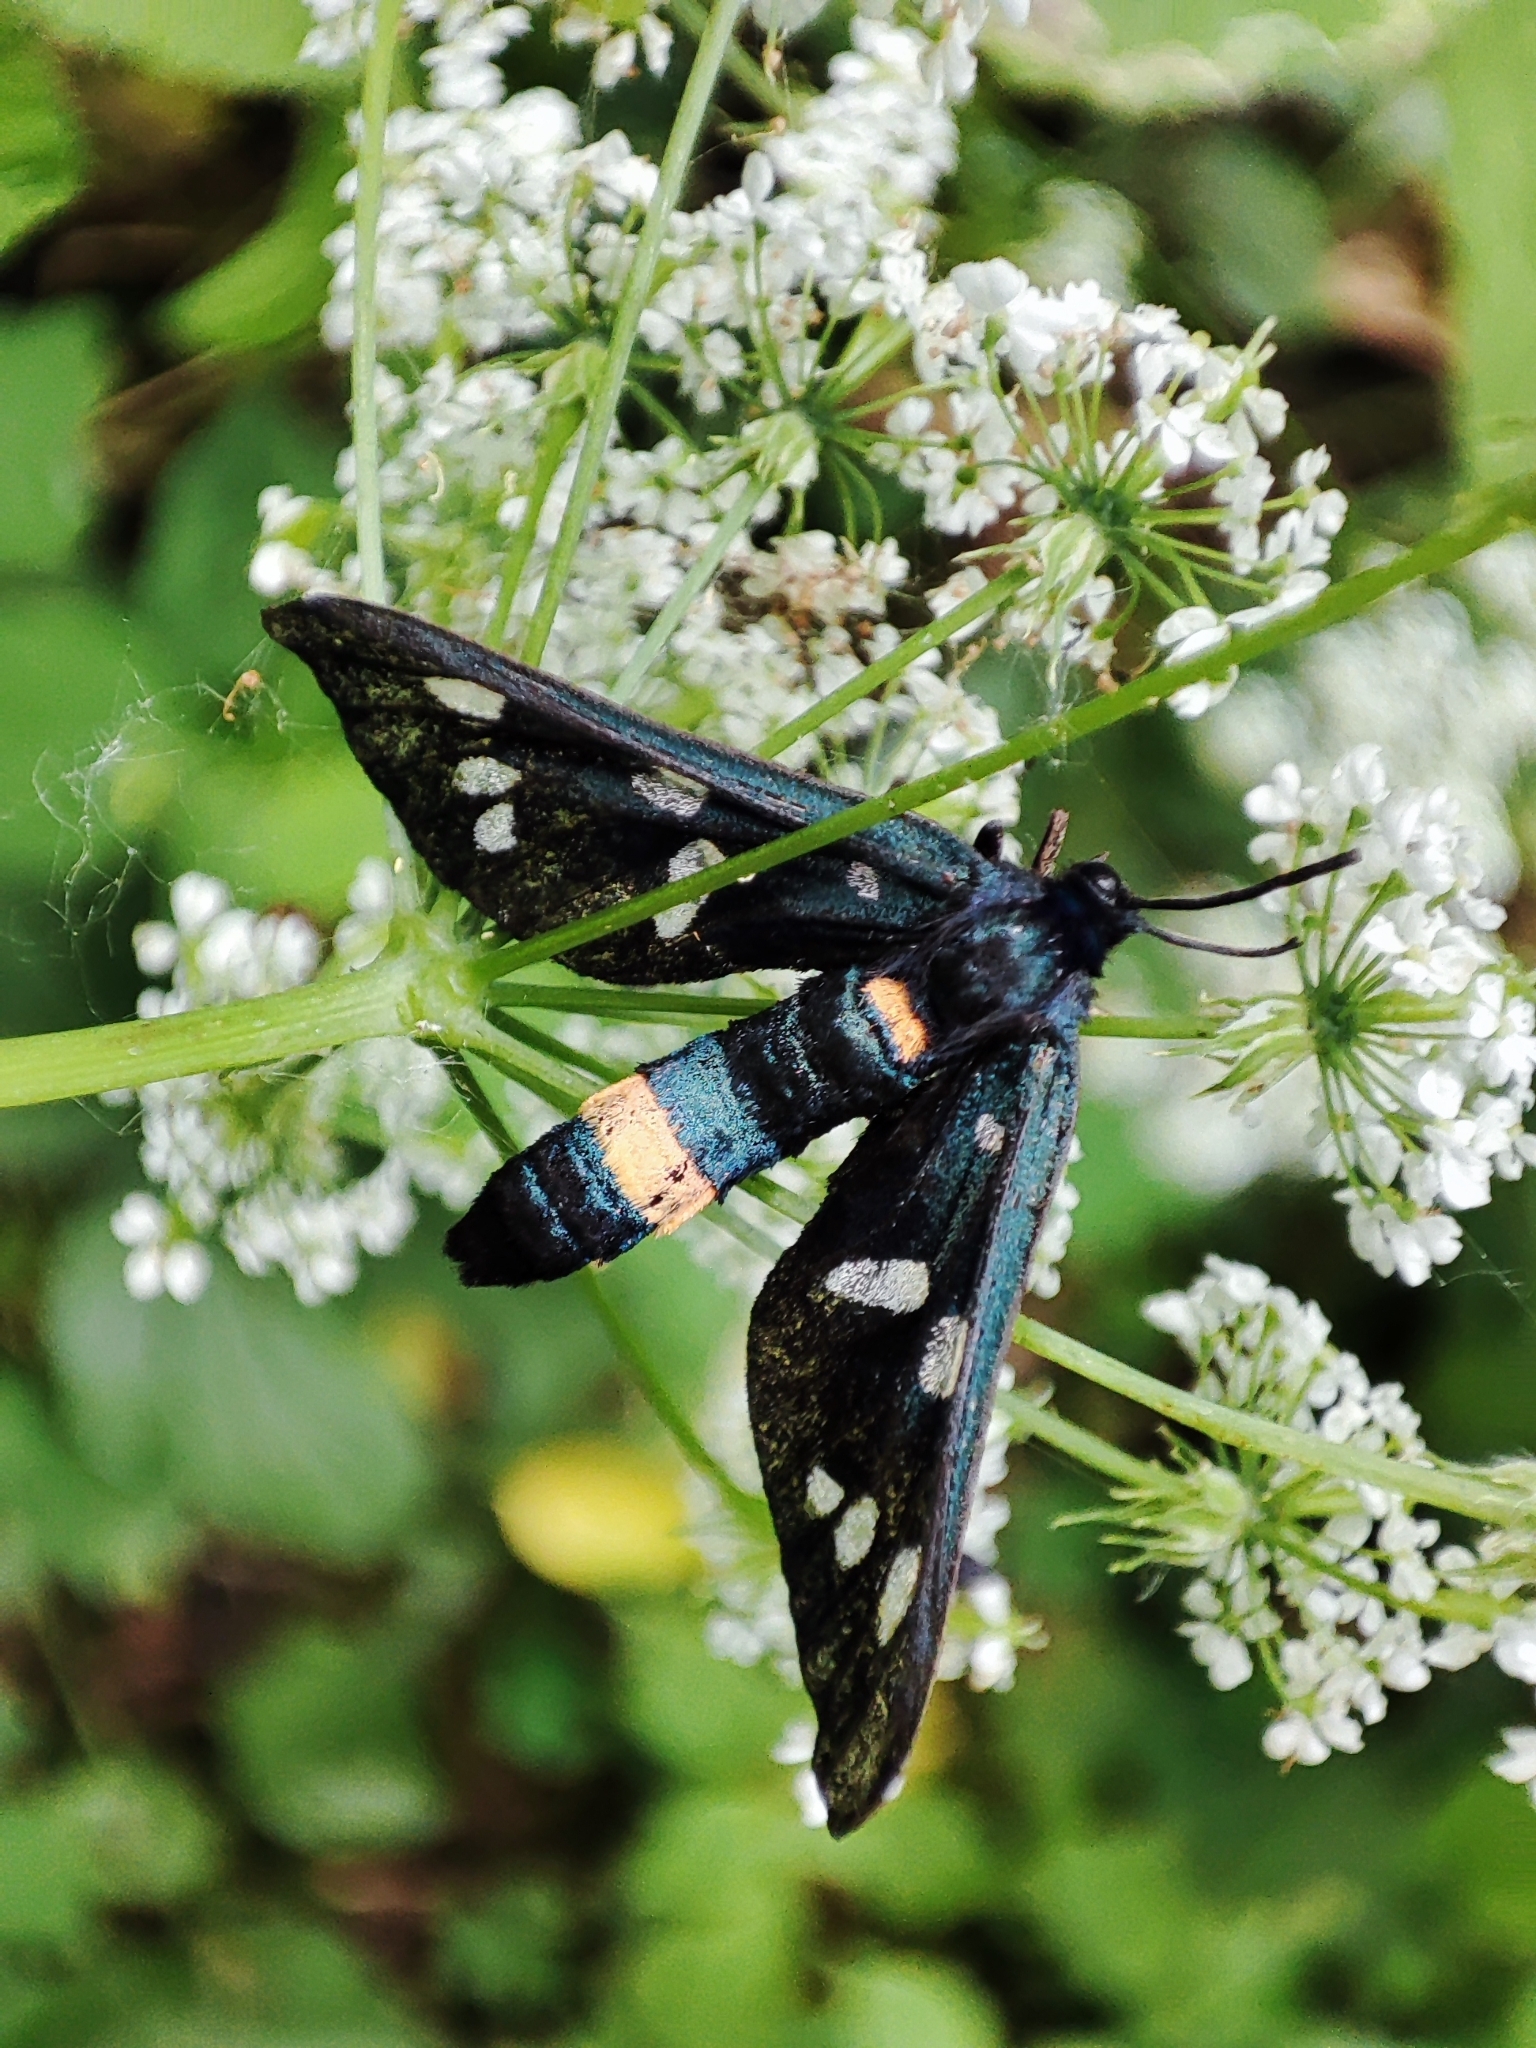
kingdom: Animalia
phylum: Arthropoda
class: Insecta
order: Lepidoptera
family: Erebidae
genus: Amata
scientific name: Amata phegea
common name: Nine-spotted
